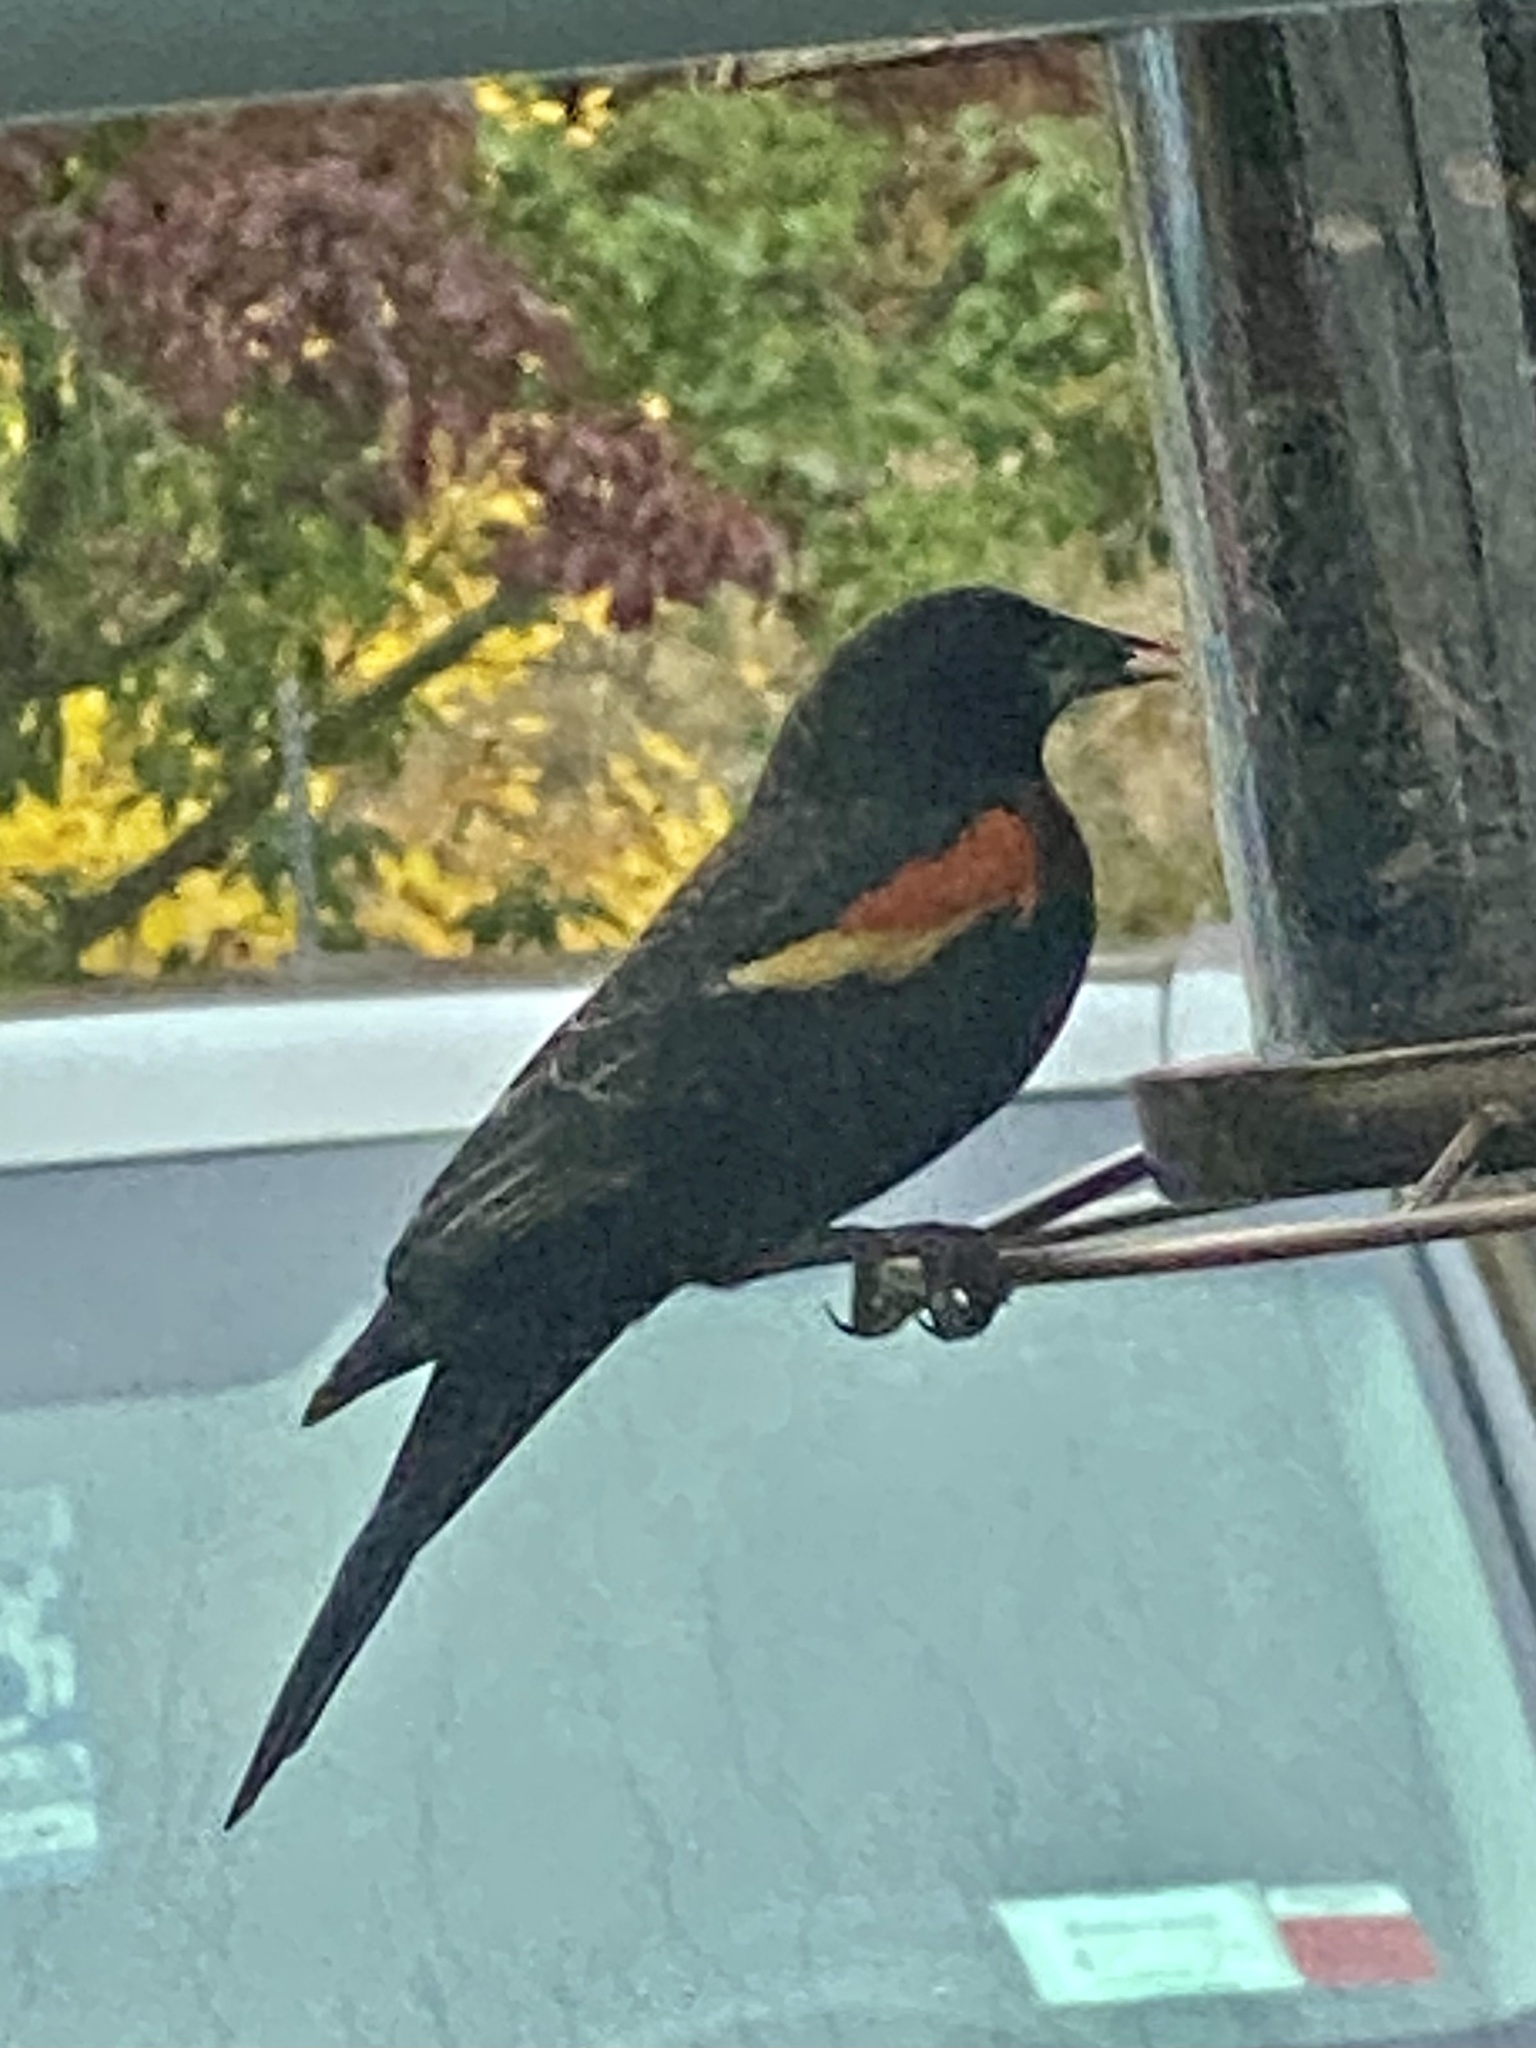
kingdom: Animalia
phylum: Chordata
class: Aves
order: Passeriformes
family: Icteridae
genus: Agelaius
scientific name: Agelaius phoeniceus
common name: Red-winged blackbird
